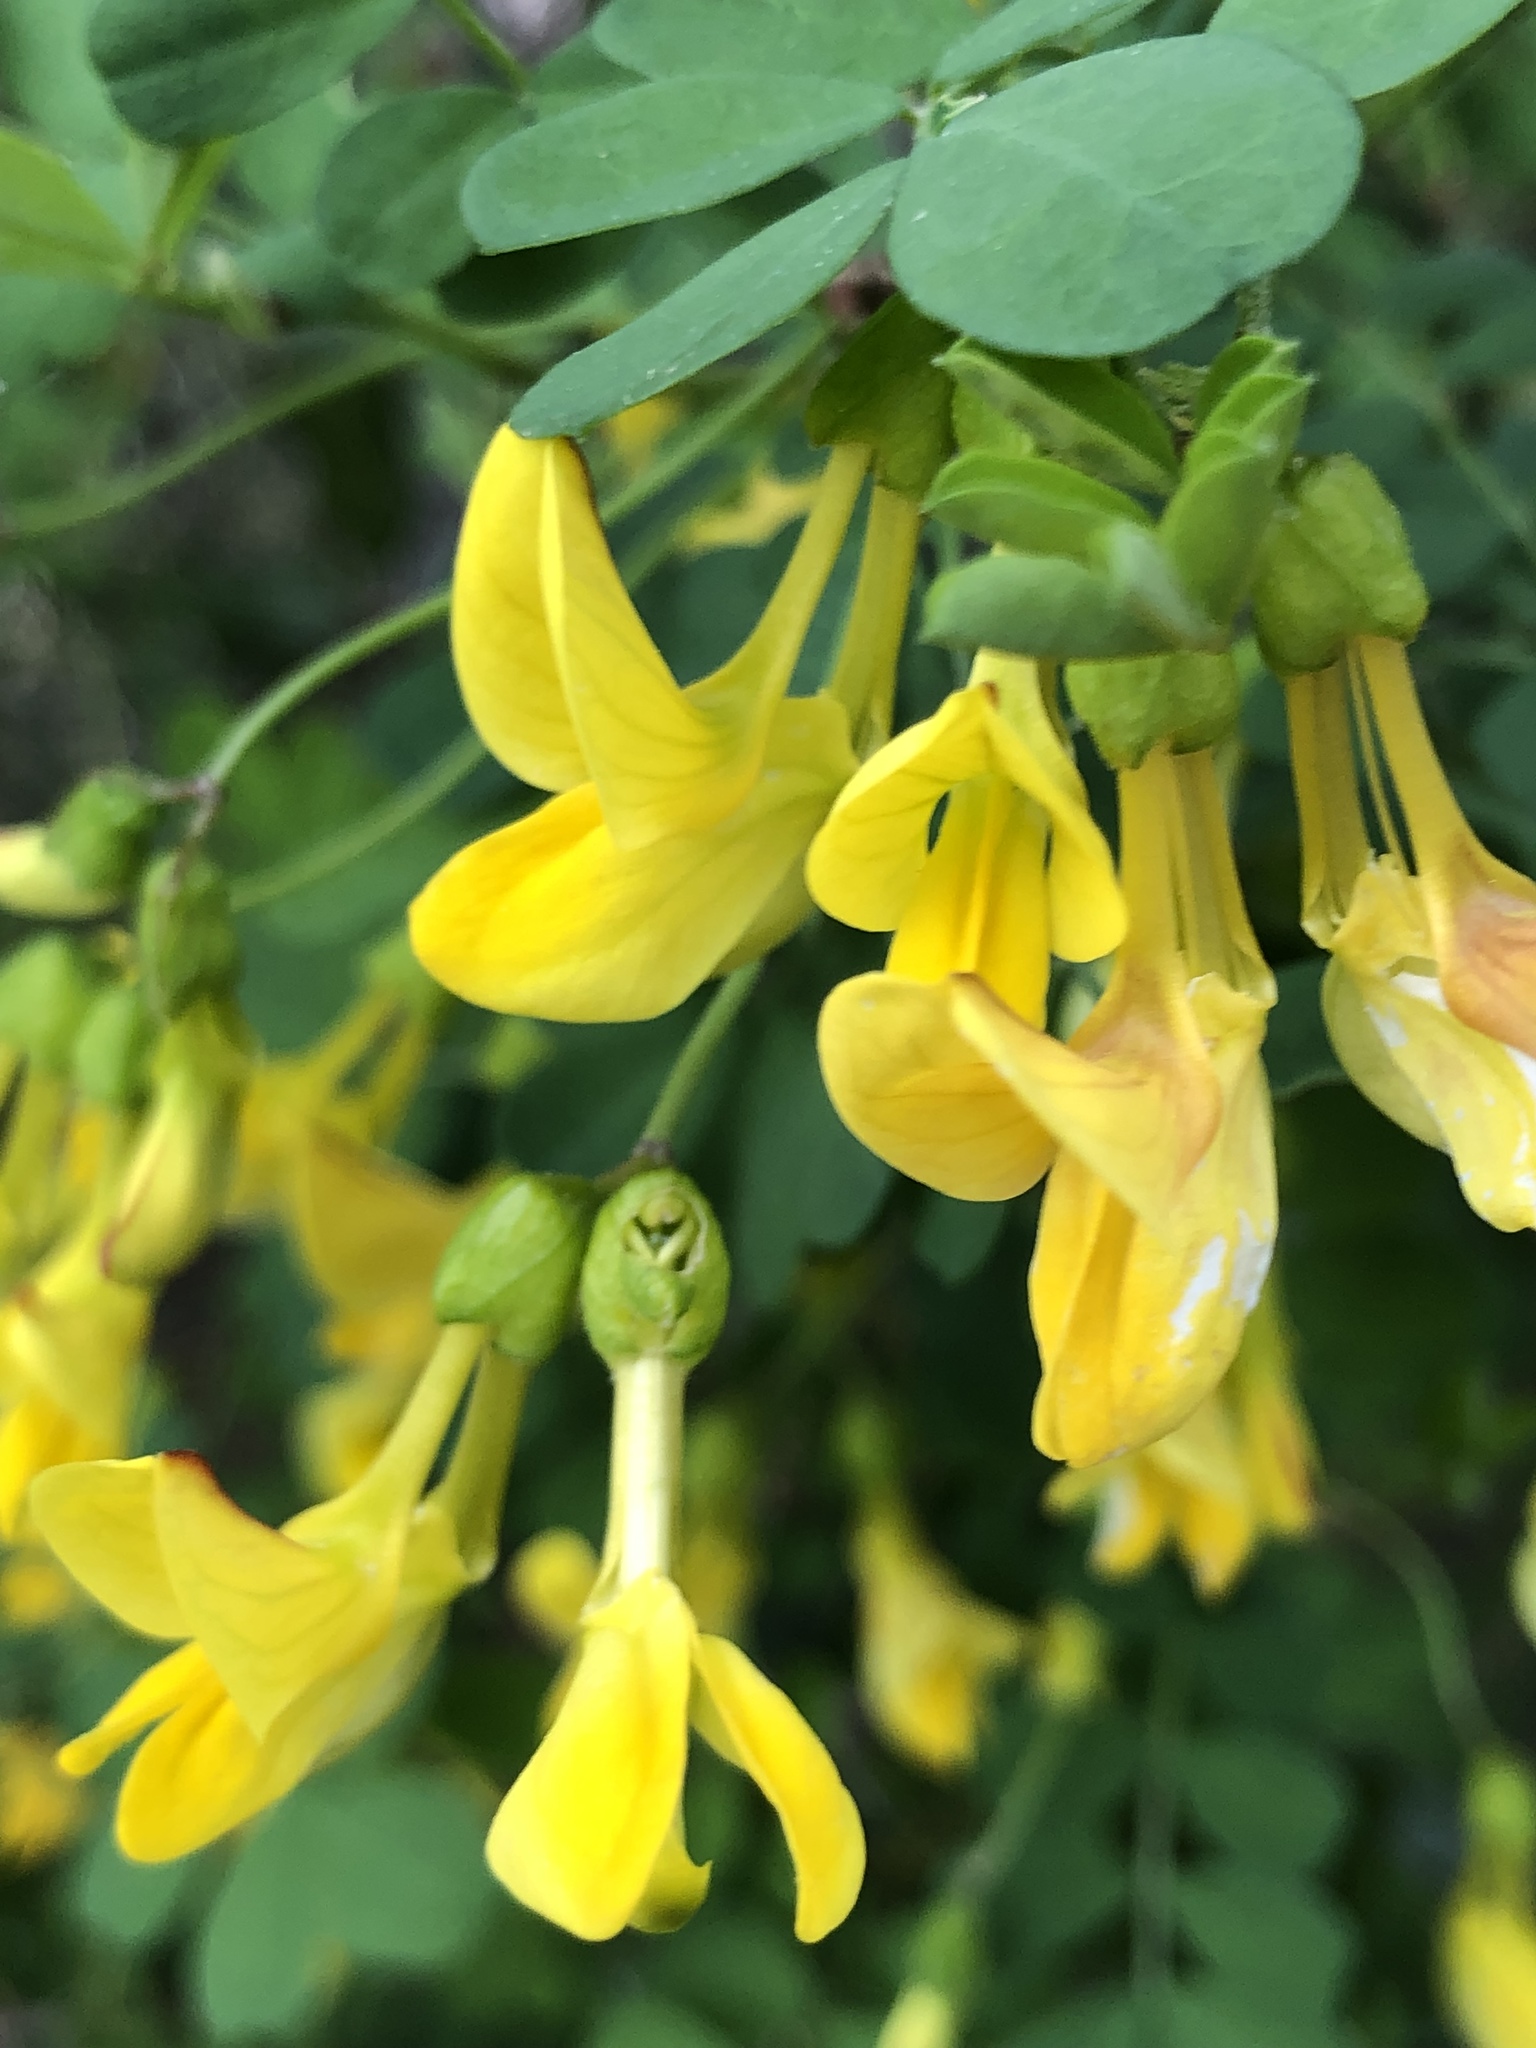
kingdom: Plantae
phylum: Tracheophyta
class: Magnoliopsida
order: Fabales
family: Fabaceae
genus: Hippocrepis
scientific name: Hippocrepis emerus
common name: Scorpion senna
